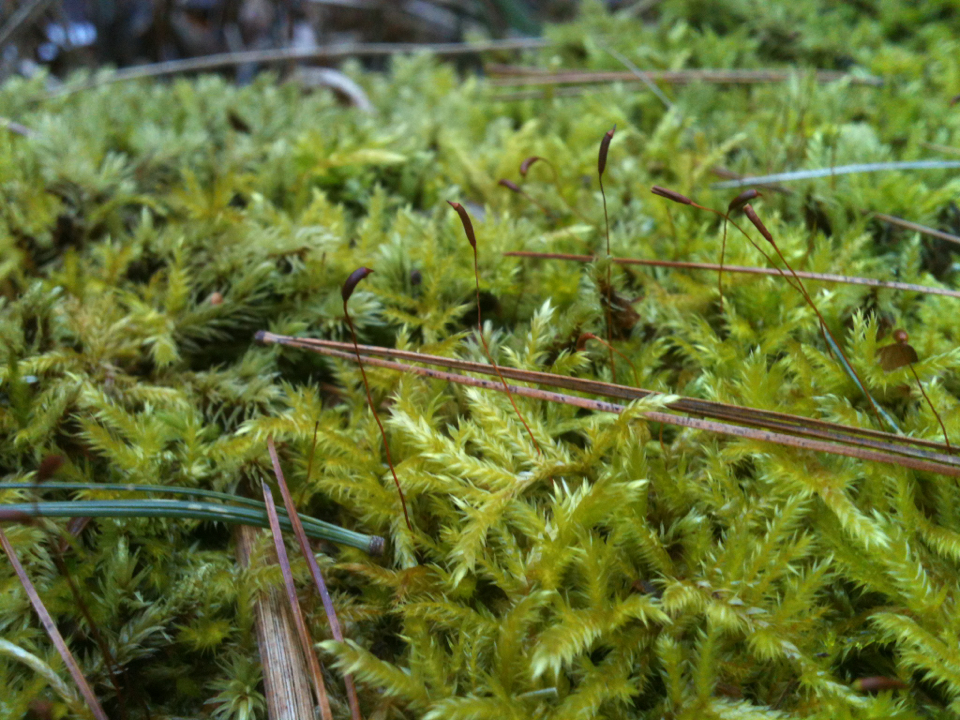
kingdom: Plantae
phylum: Bryophyta
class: Bryopsida
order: Hypnales
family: Callicladiaceae
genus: Callicladium
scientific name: Callicladium haldanianum
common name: Beautiful branch moss
